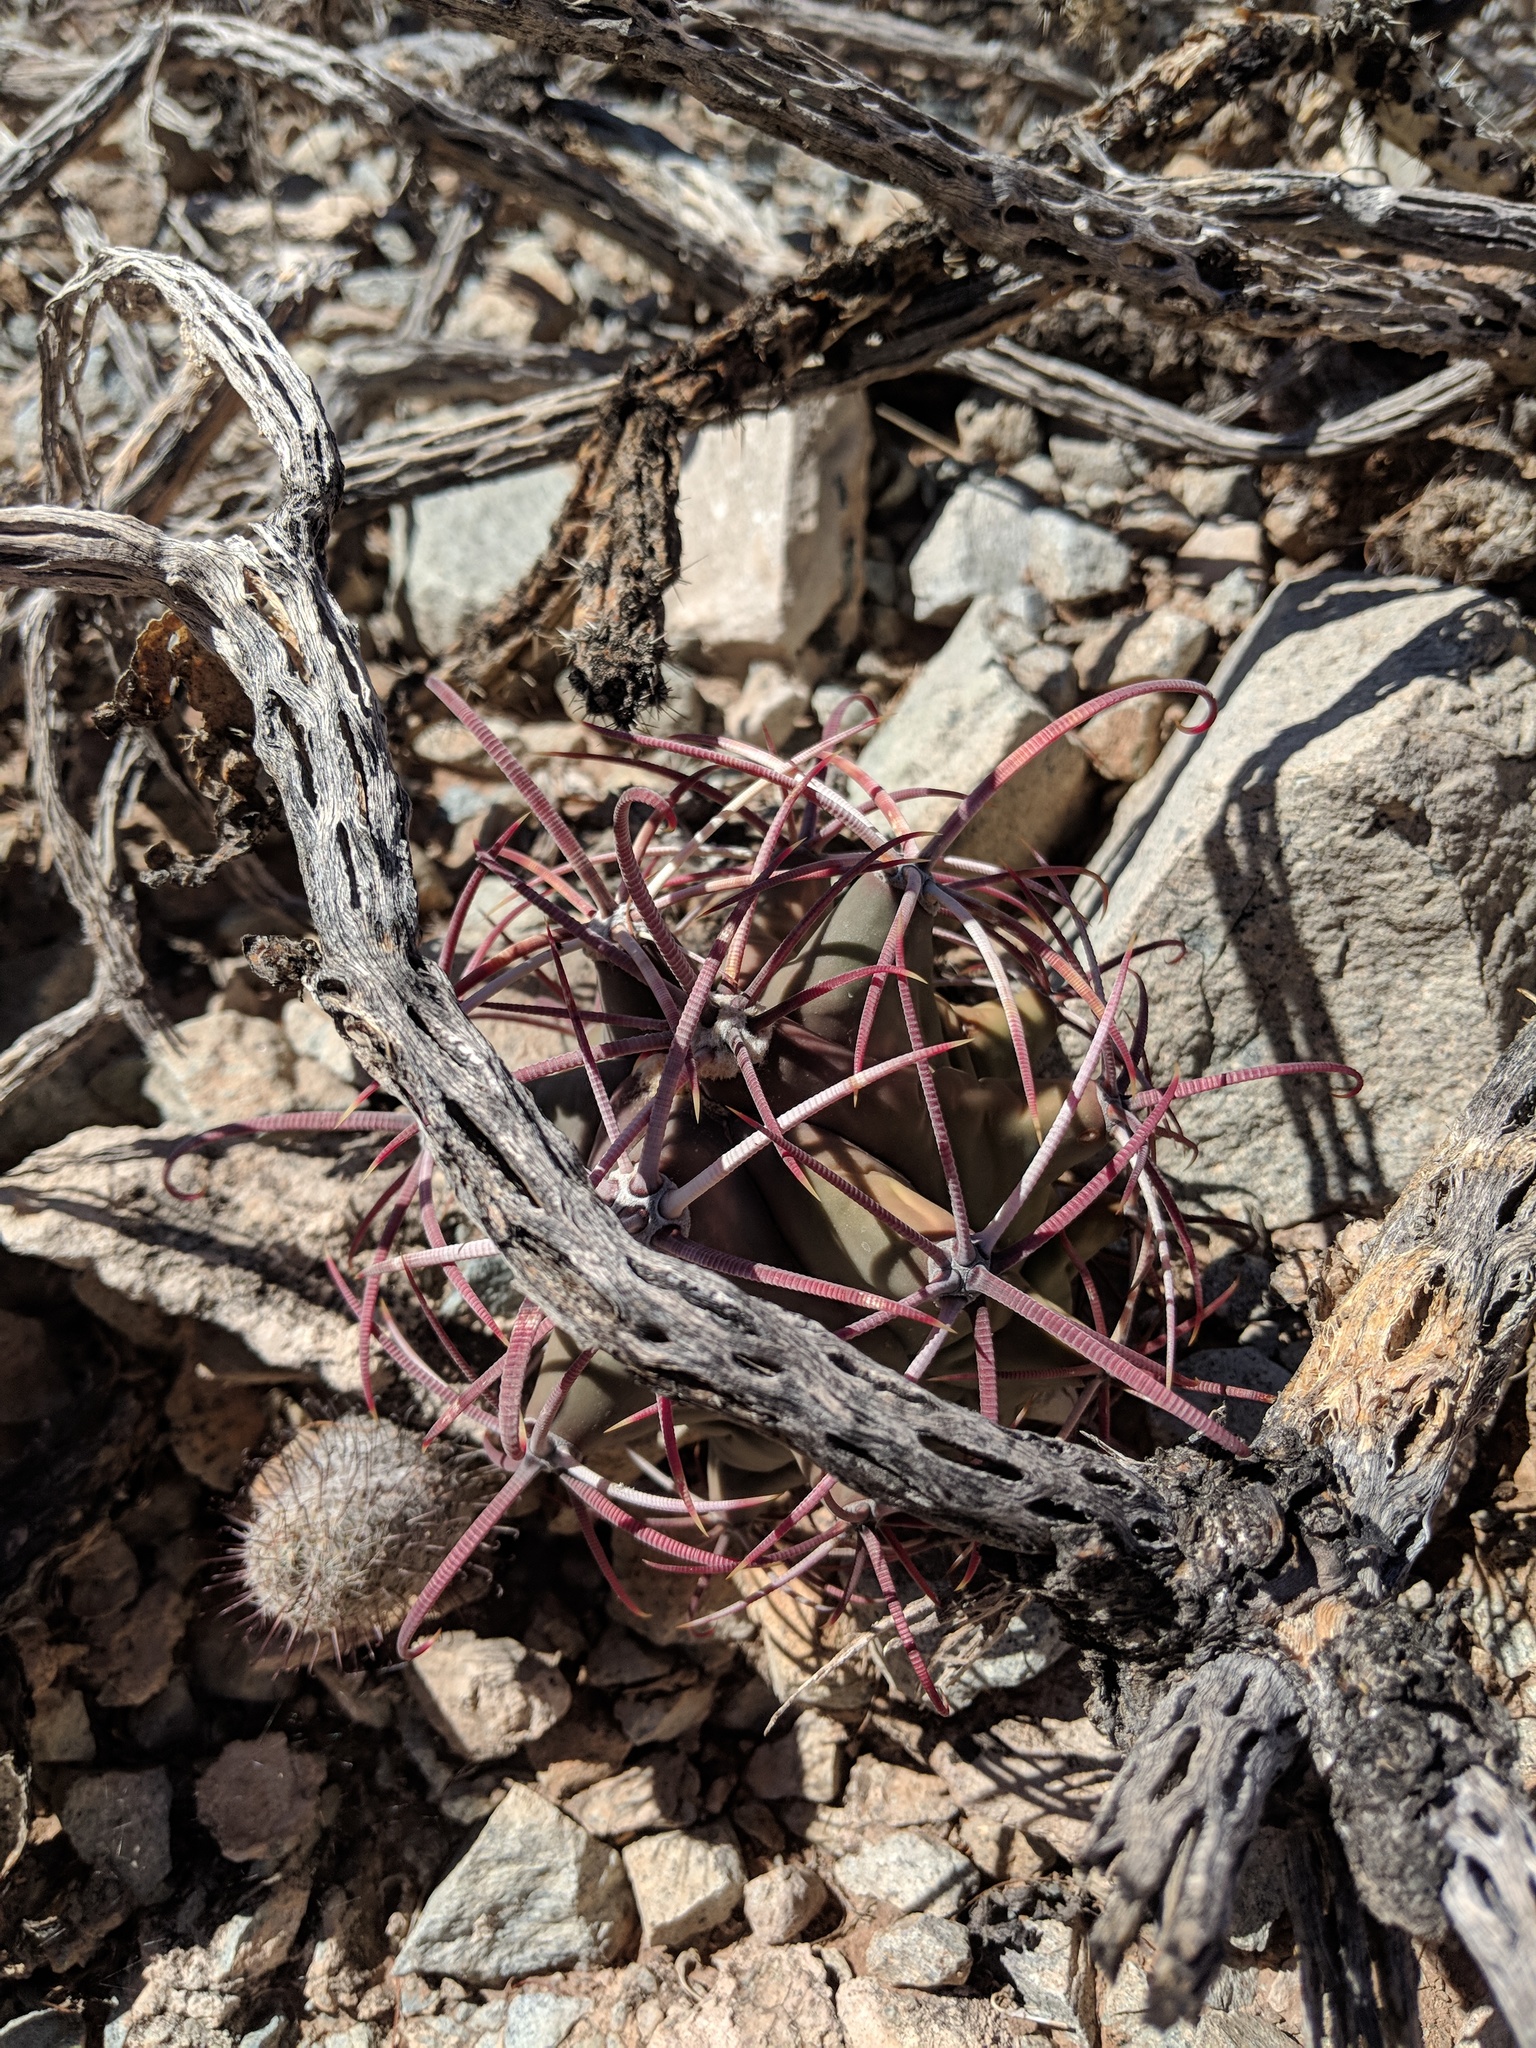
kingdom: Plantae
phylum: Tracheophyta
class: Magnoliopsida
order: Caryophyllales
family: Cactaceae
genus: Ferocactus
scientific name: Ferocactus emoryi
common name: Emory's barrel cactus
